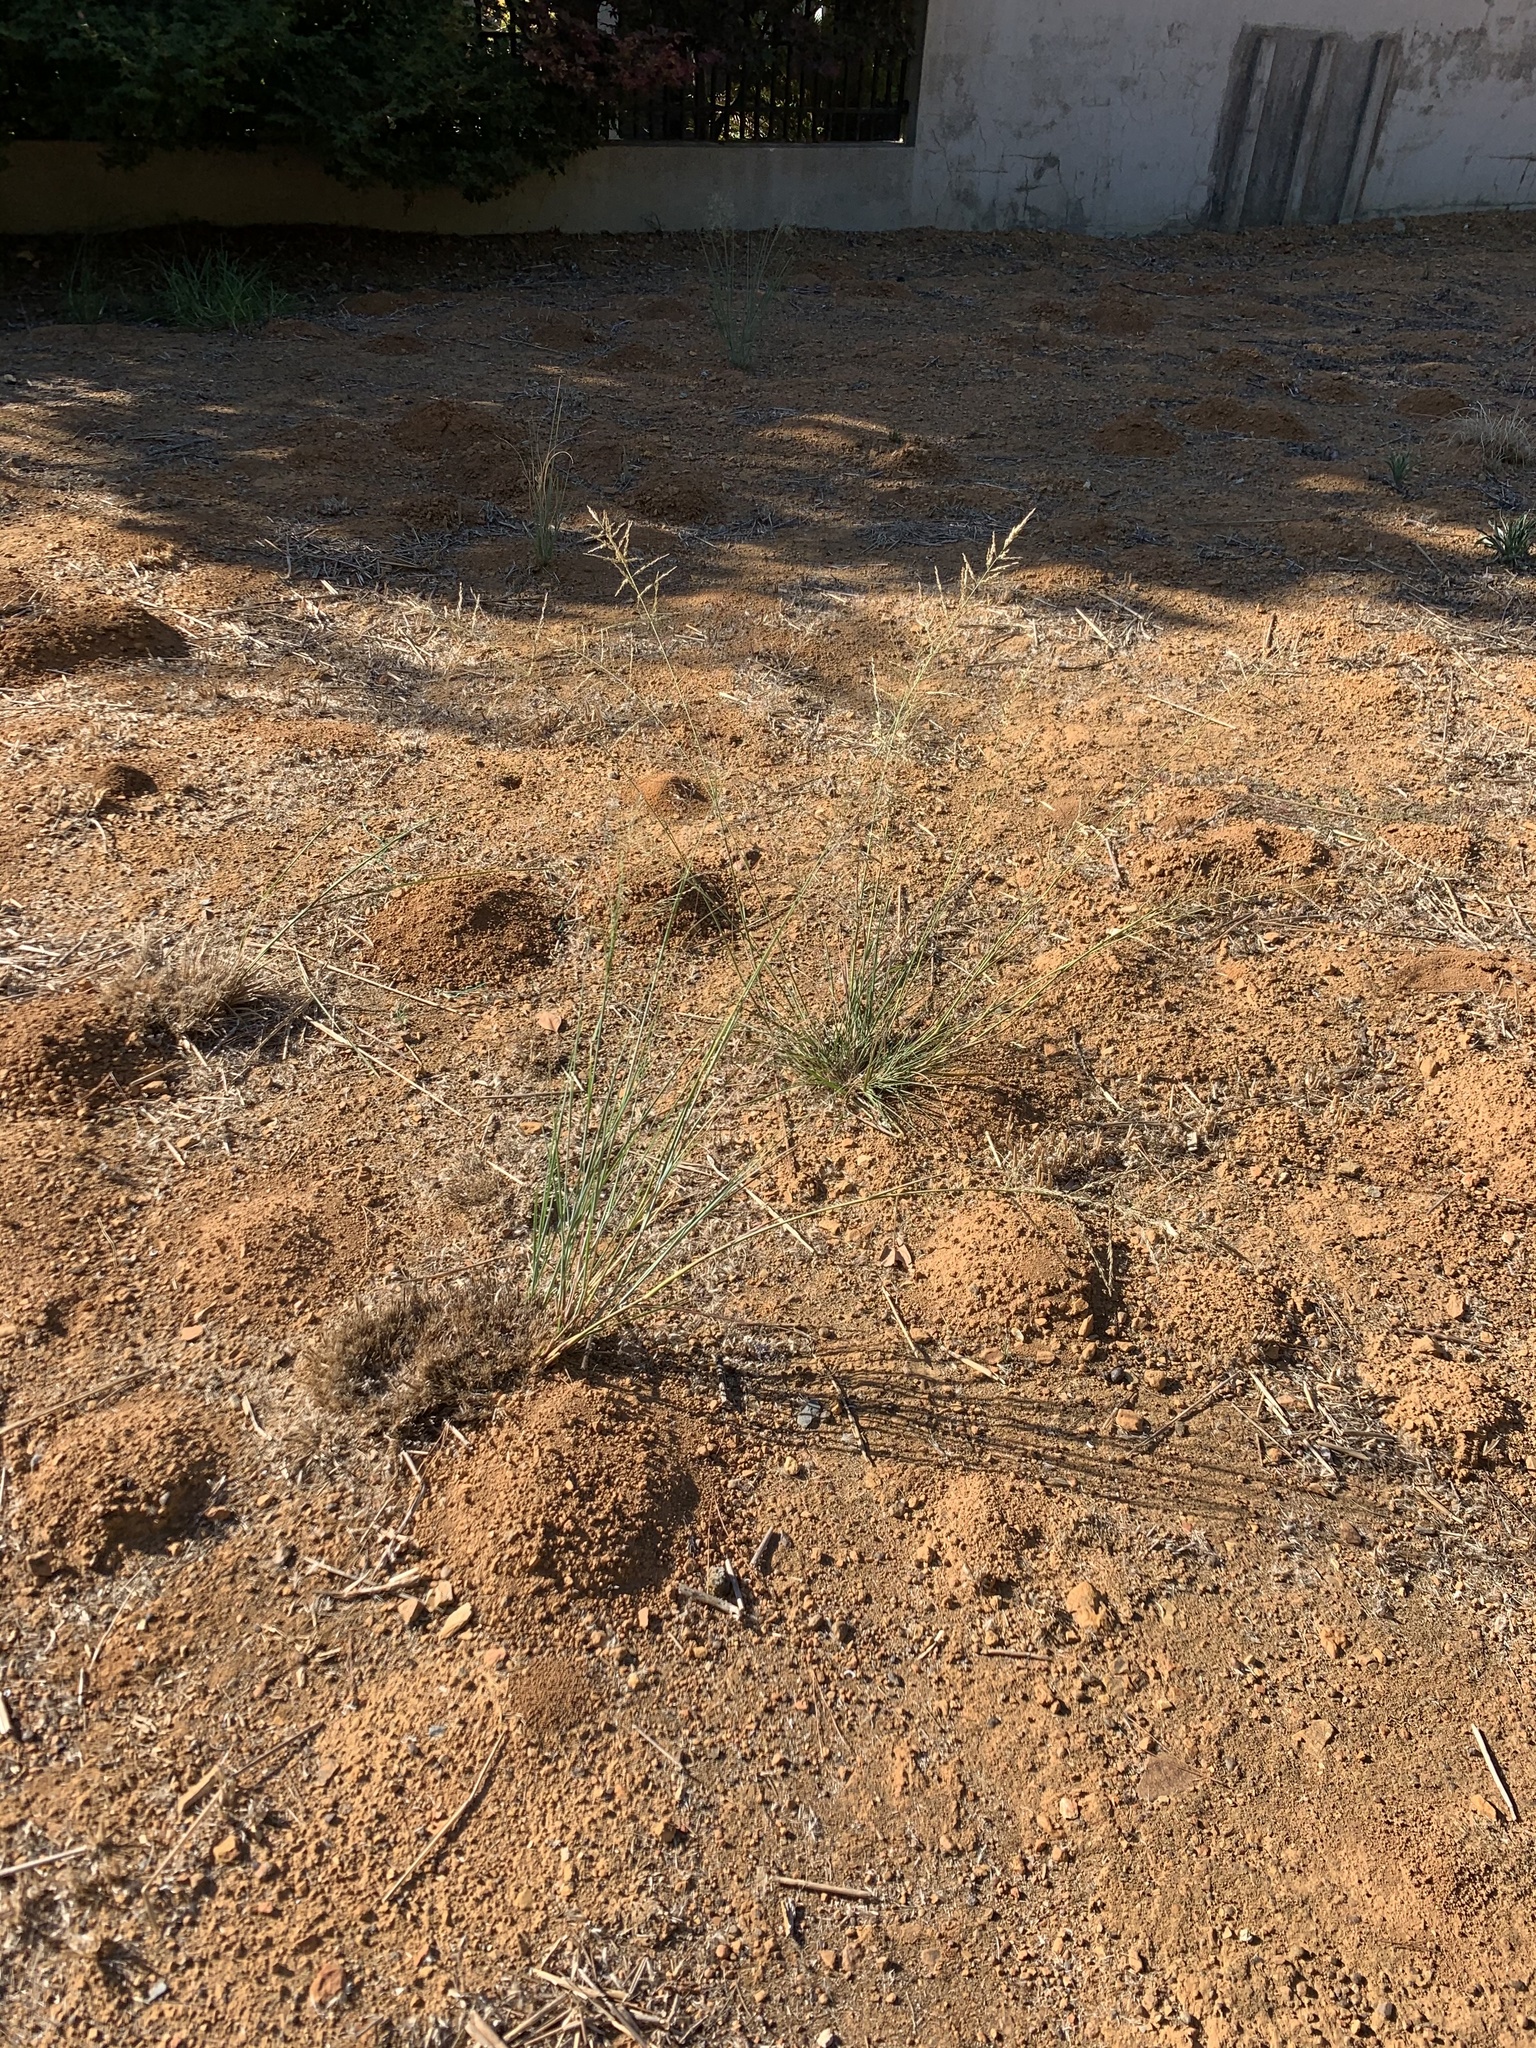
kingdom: Plantae
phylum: Tracheophyta
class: Liliopsida
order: Poales
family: Poaceae
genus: Eragrostis
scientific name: Eragrostis curvula
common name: African love-grass
